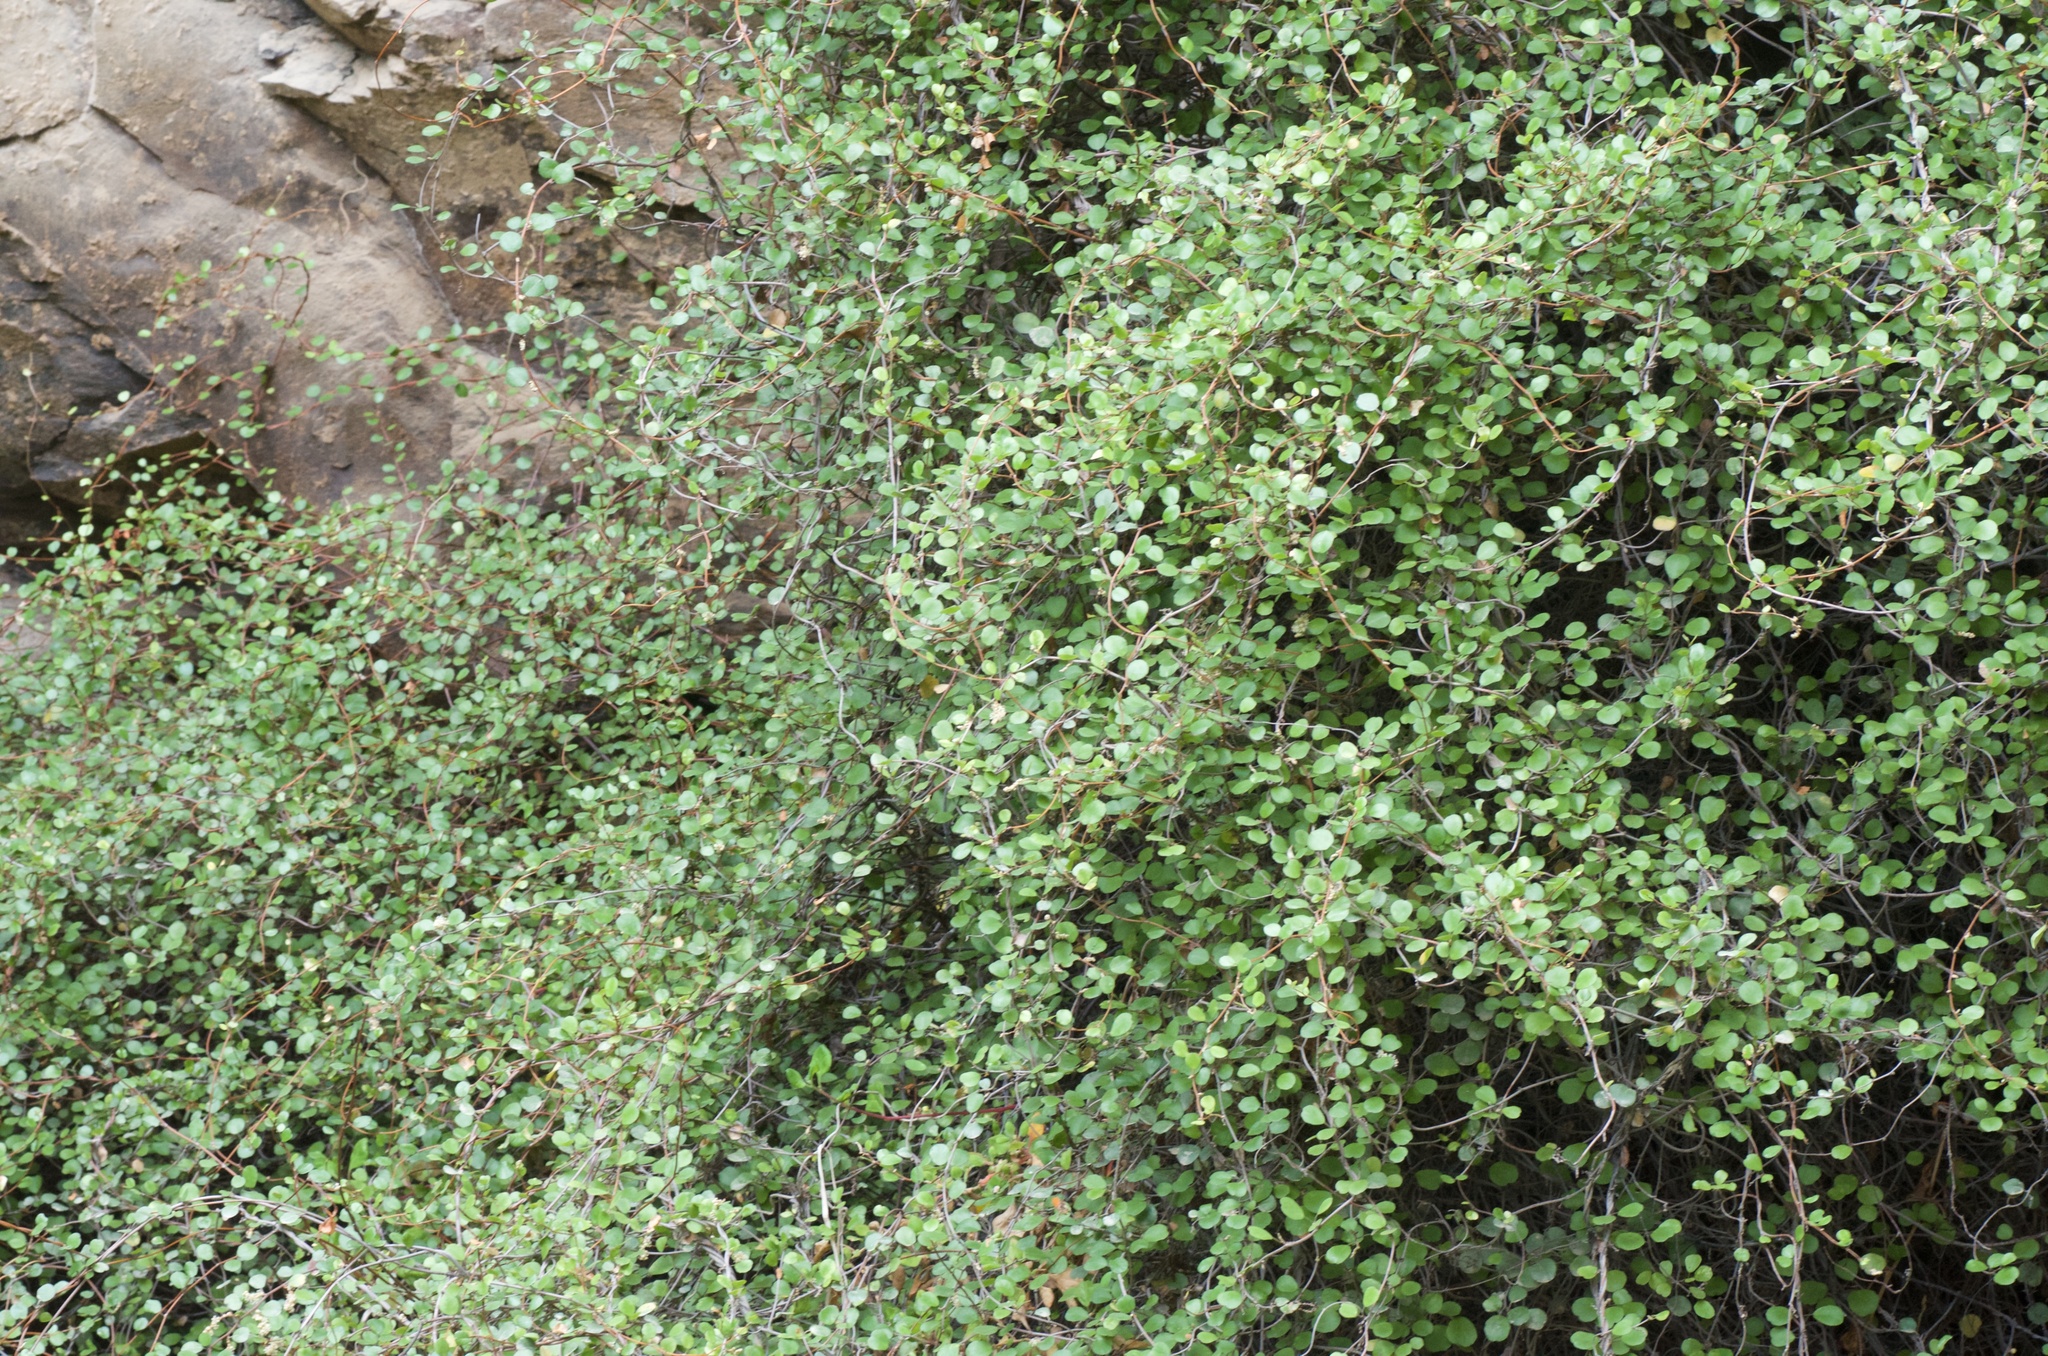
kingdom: Plantae
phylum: Tracheophyta
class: Magnoliopsida
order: Caryophyllales
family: Polygonaceae
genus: Muehlenbeckia
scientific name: Muehlenbeckia complexa
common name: Wireplant
